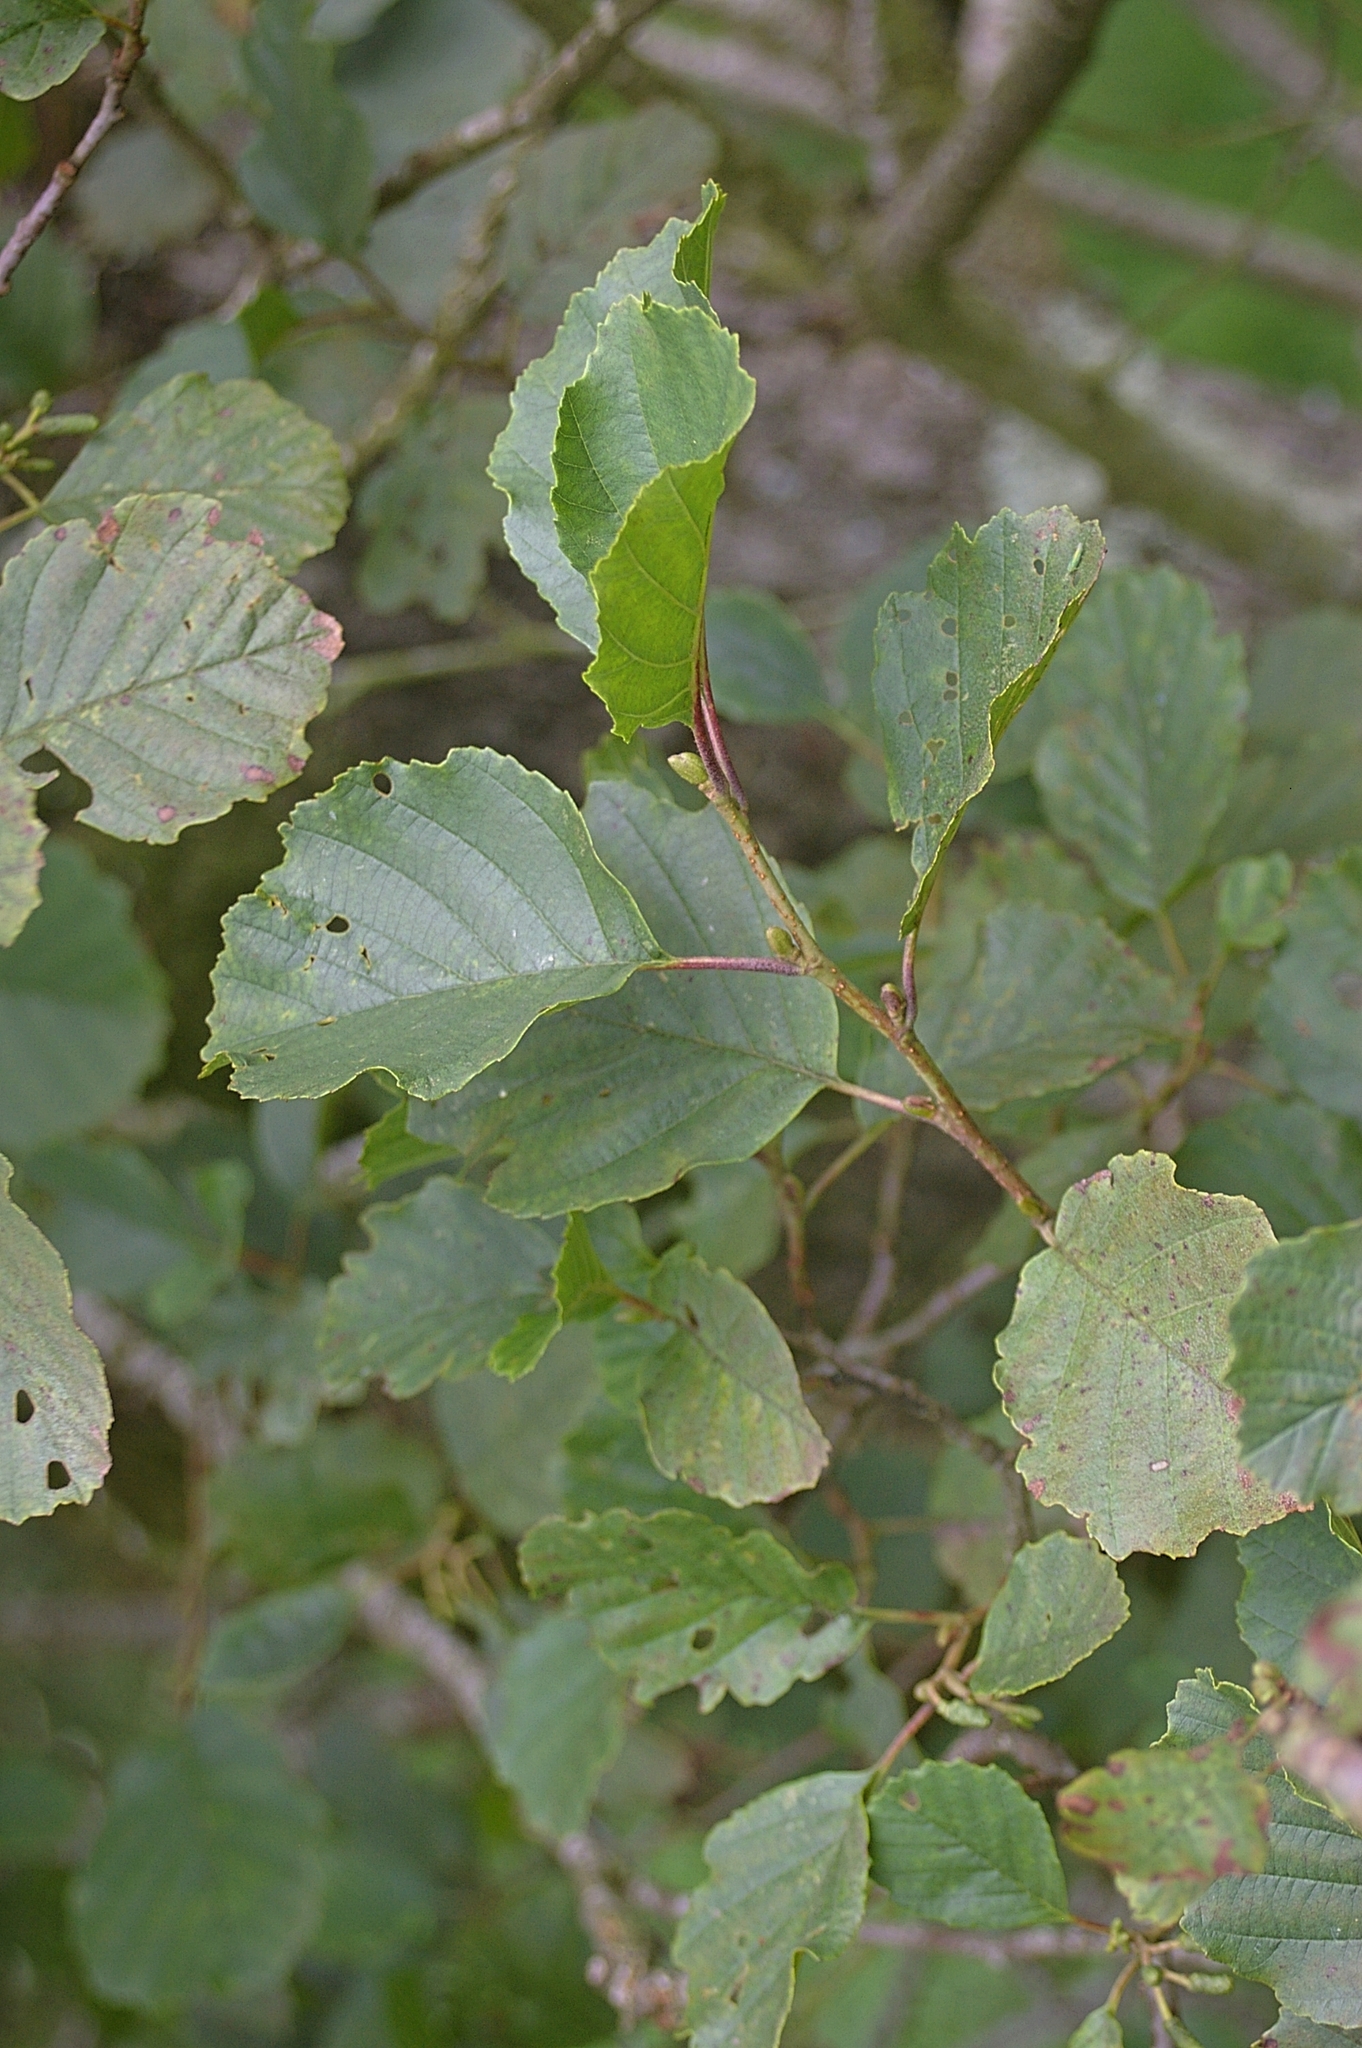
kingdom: Plantae
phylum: Tracheophyta
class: Magnoliopsida
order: Fagales
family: Betulaceae
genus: Alnus
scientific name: Alnus glutinosa
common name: Black alder
